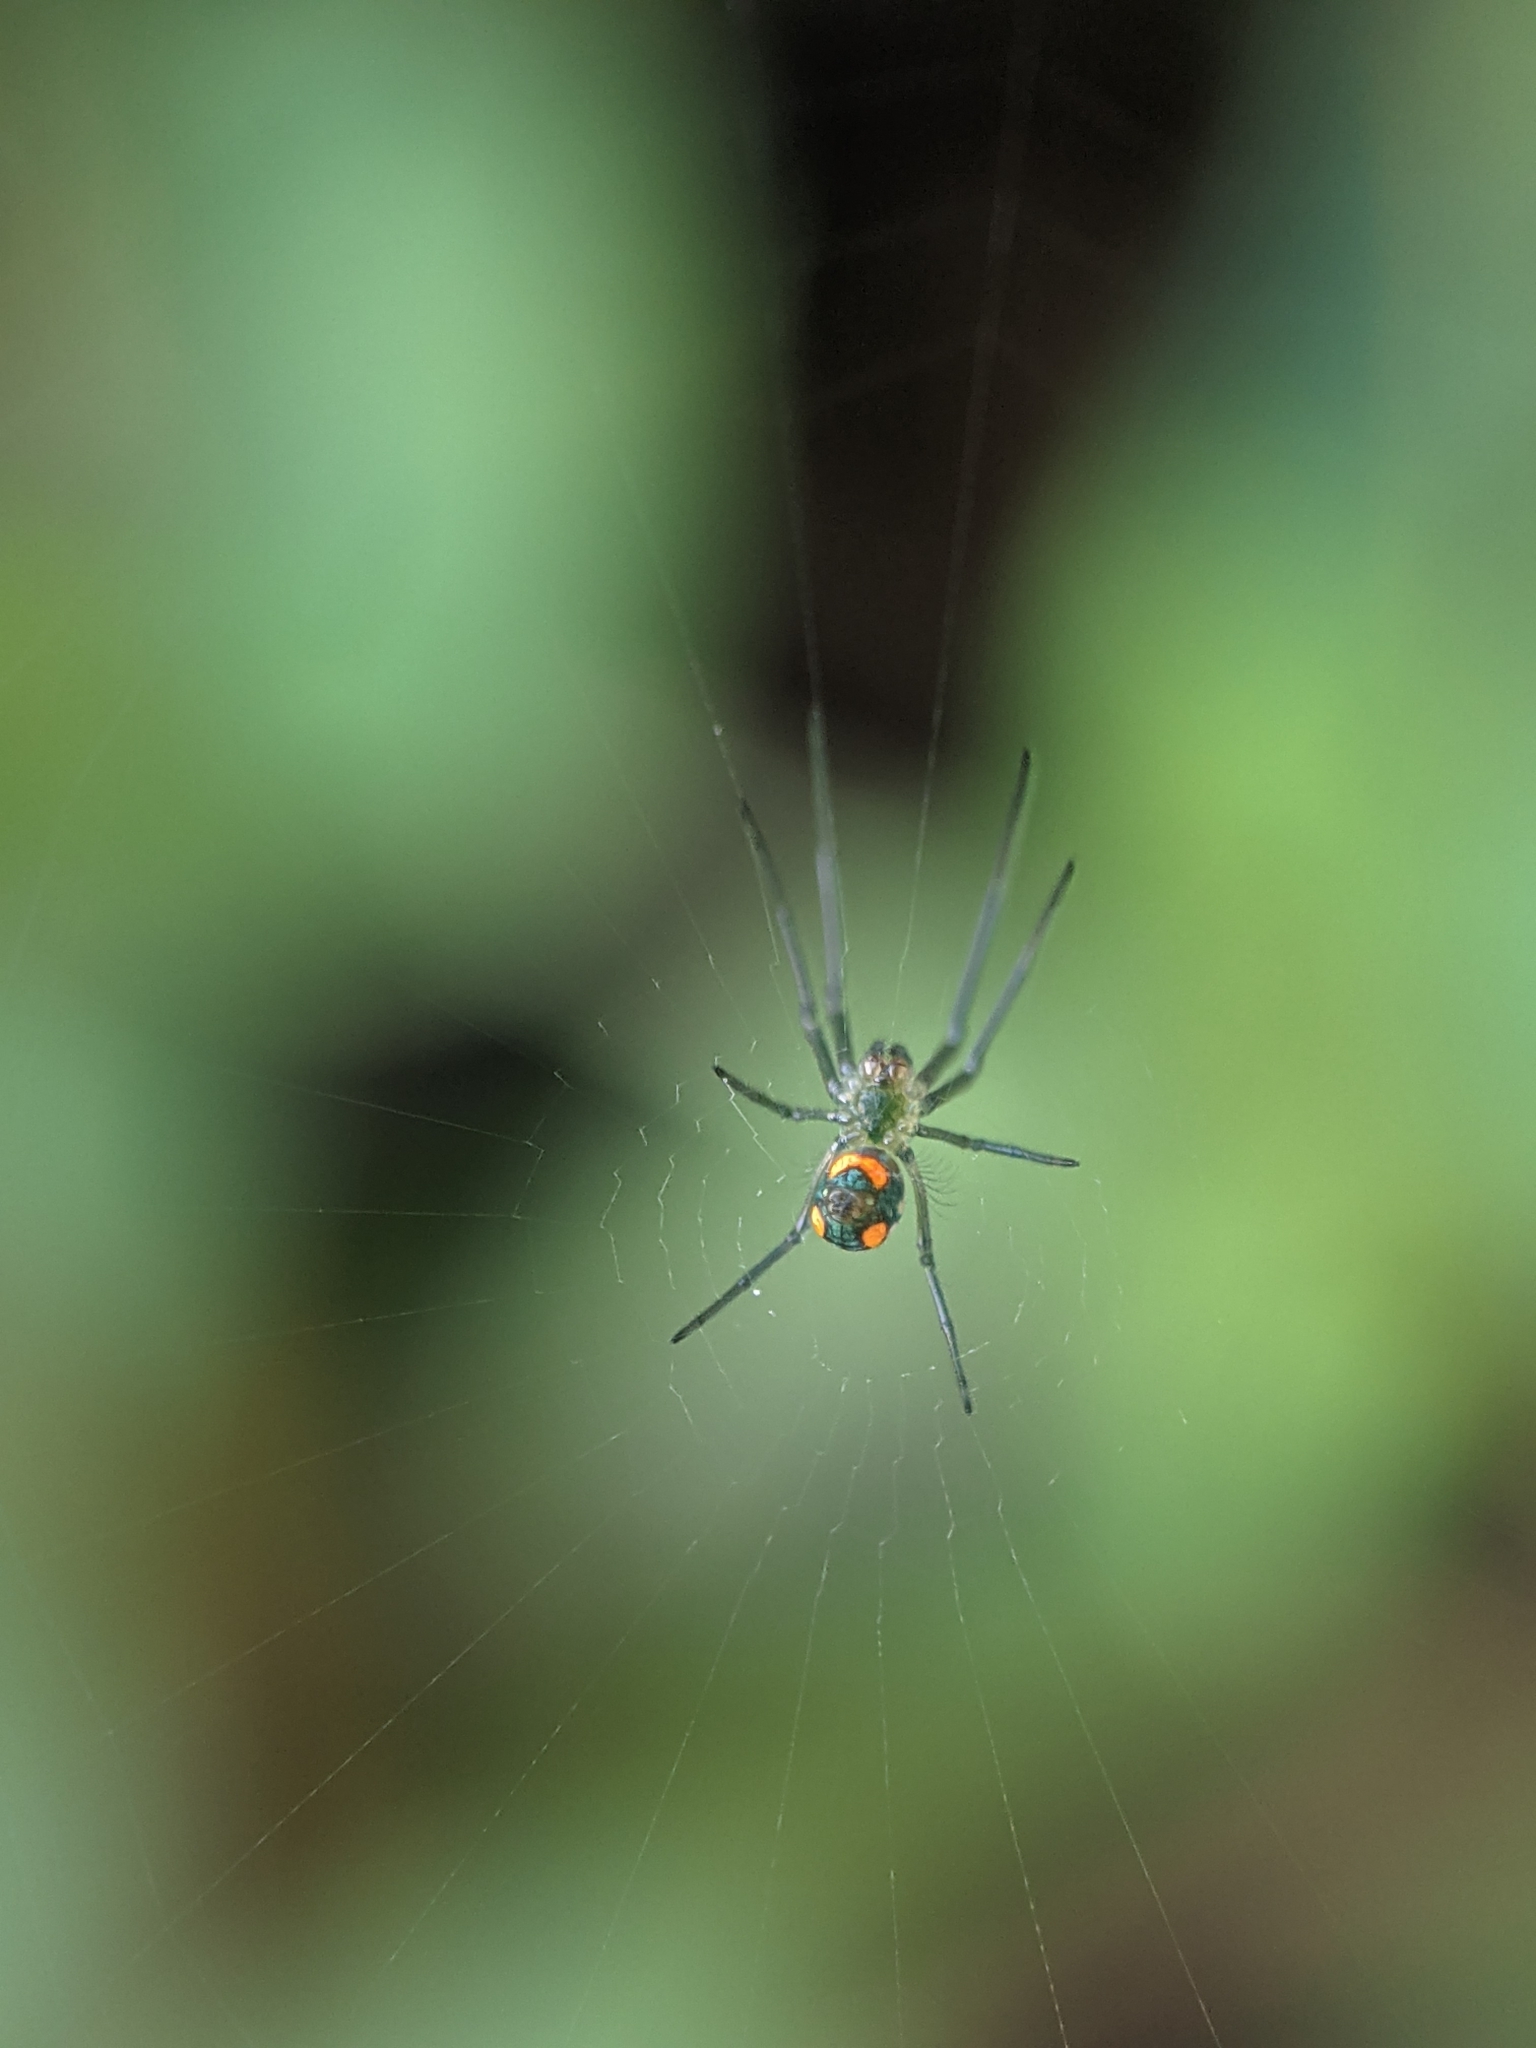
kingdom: Animalia
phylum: Arthropoda
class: Arachnida
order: Araneae
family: Tetragnathidae
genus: Leucauge
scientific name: Leucauge argyrobapta
